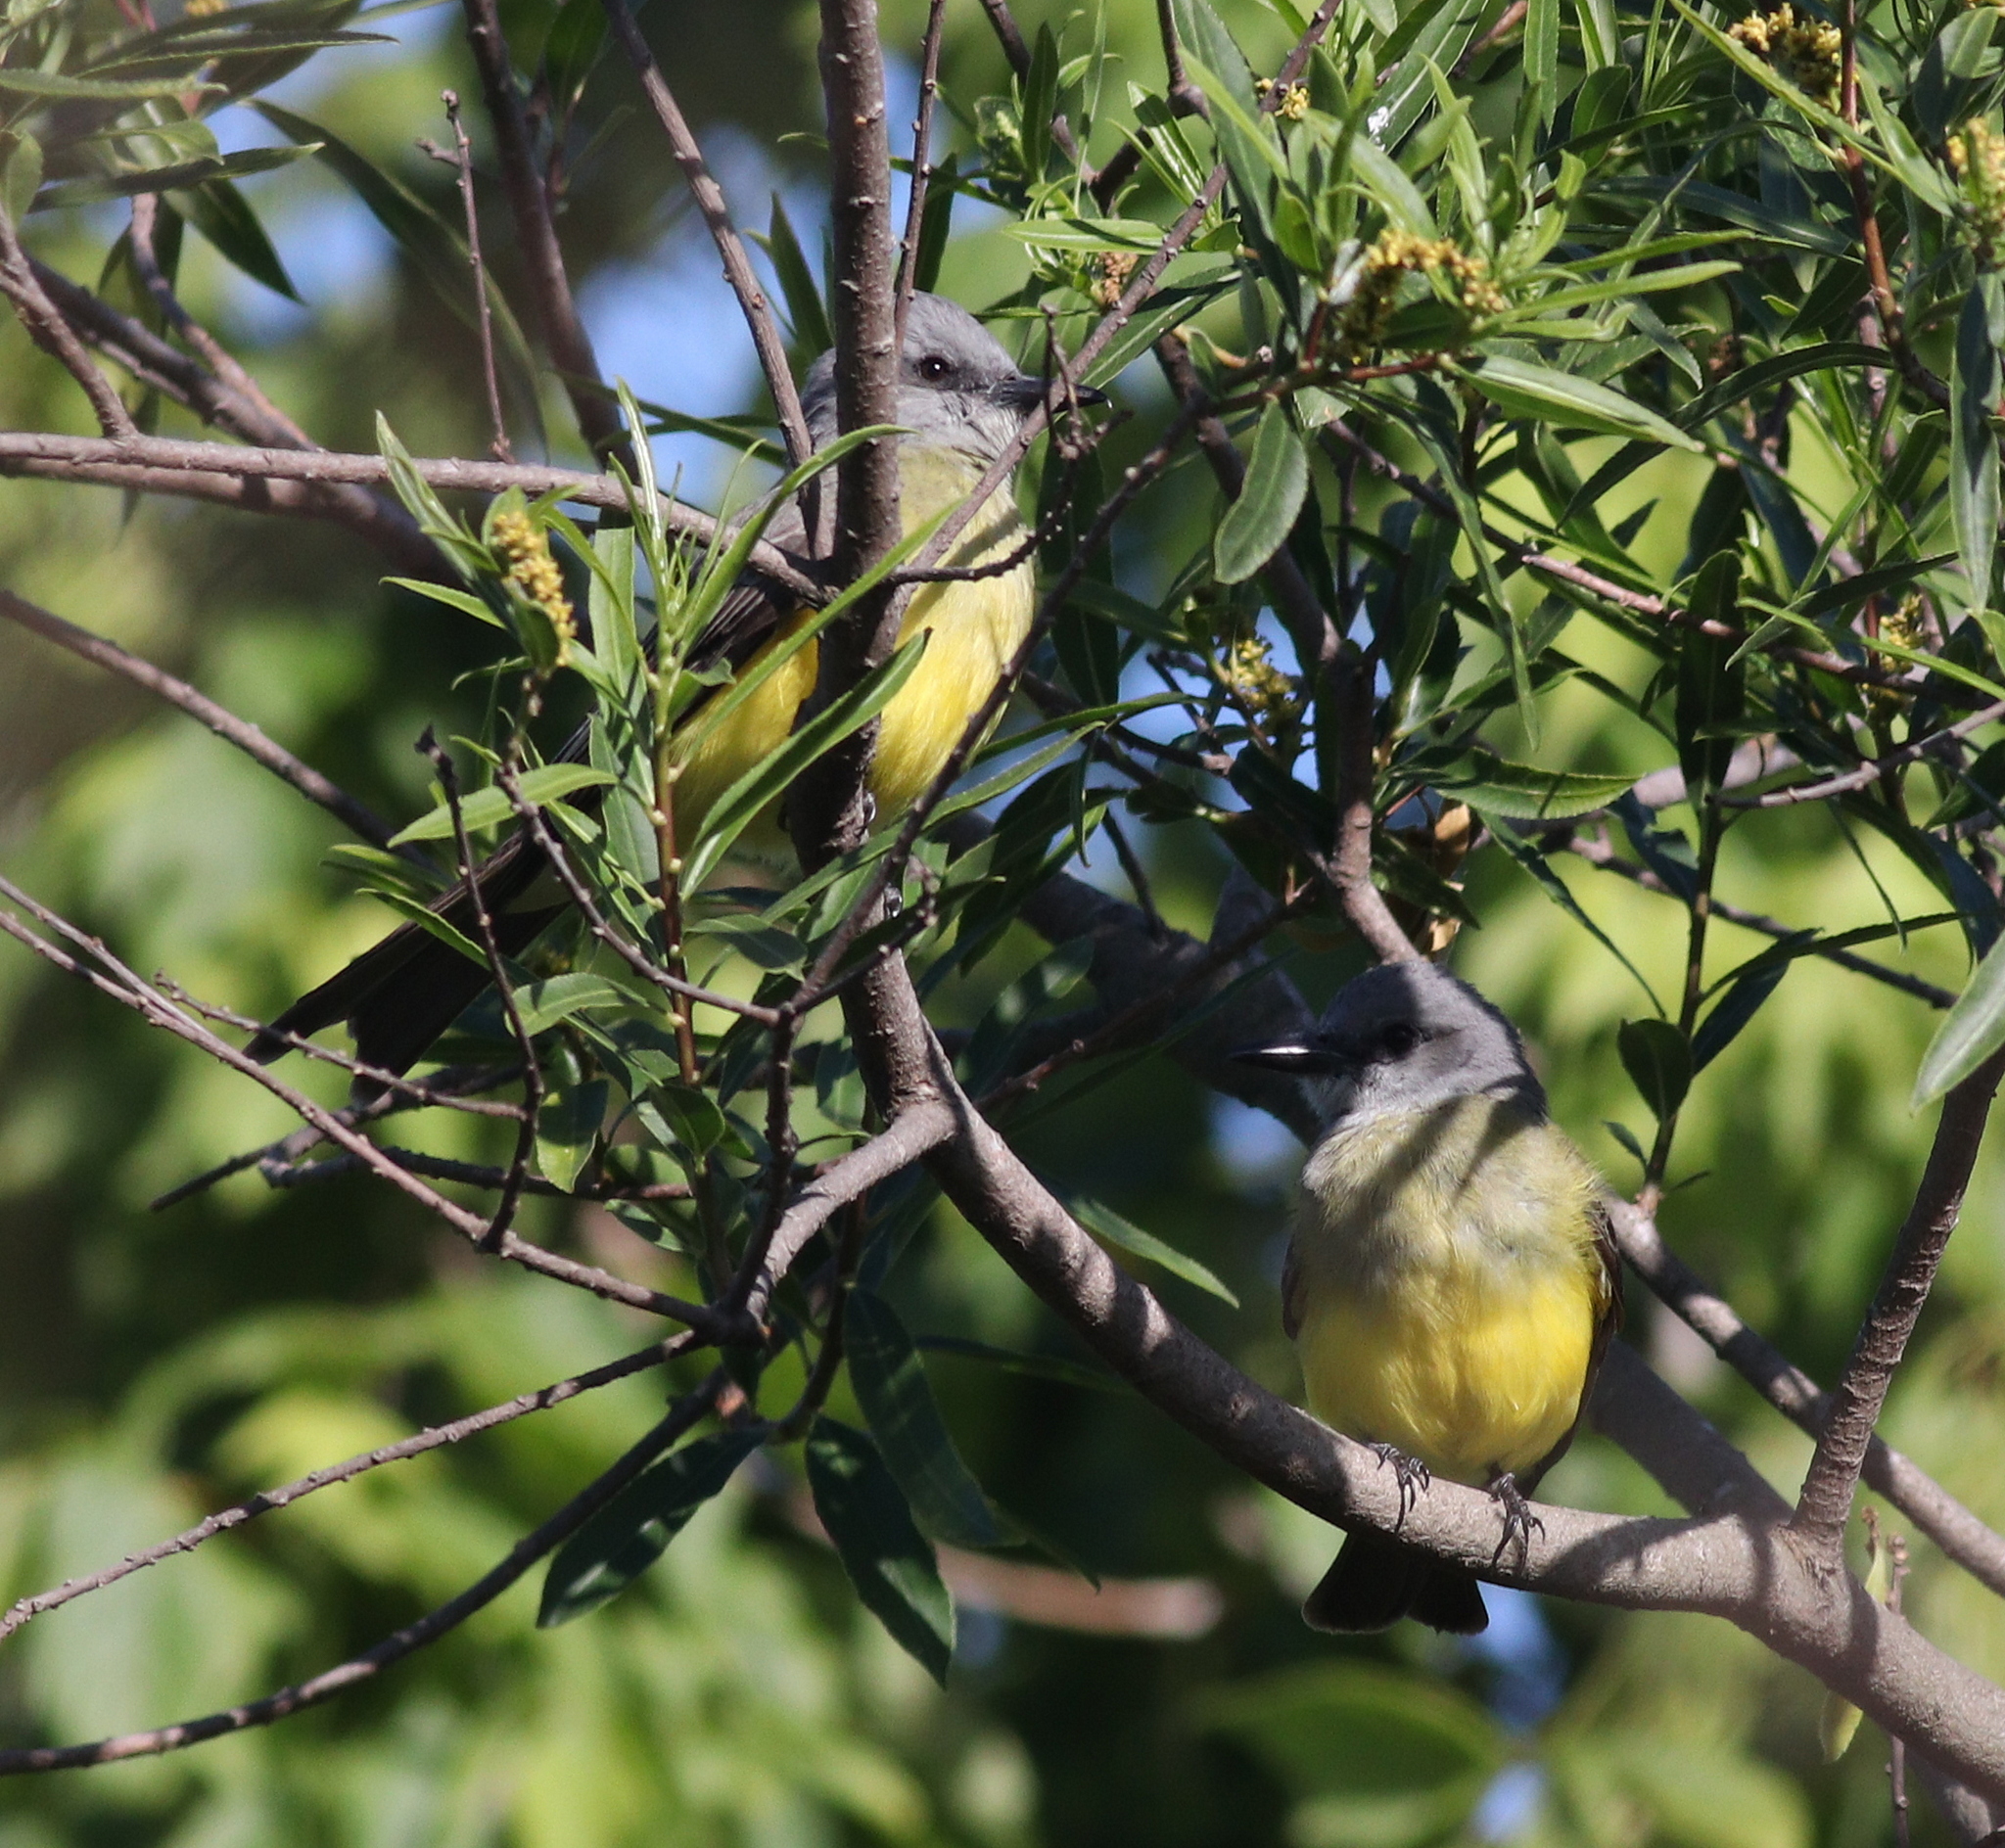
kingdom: Animalia
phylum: Chordata
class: Aves
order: Passeriformes
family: Tyrannidae
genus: Tyrannus
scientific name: Tyrannus melancholicus
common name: Tropical kingbird
